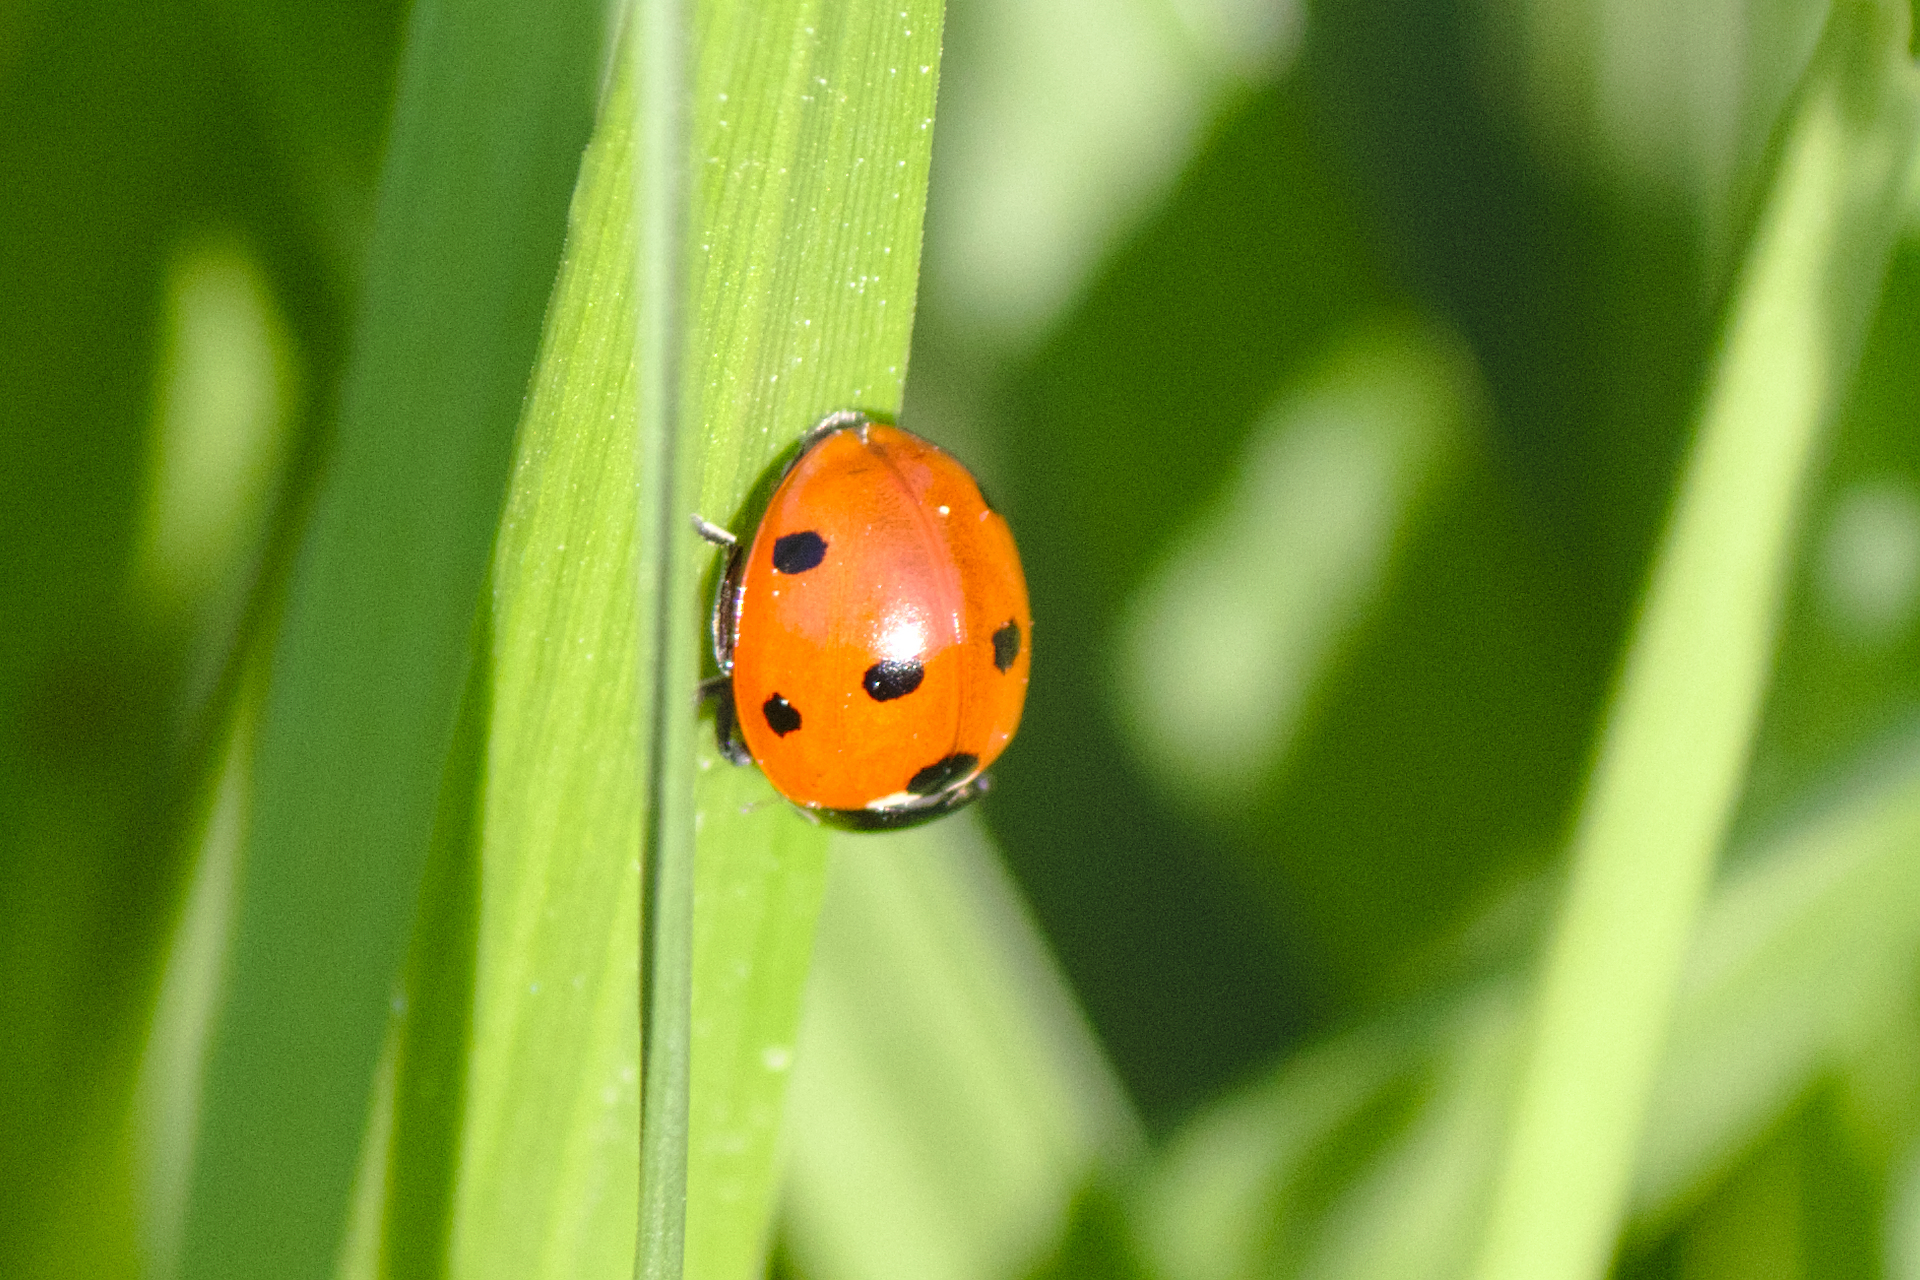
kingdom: Animalia
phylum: Arthropoda
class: Insecta
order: Coleoptera
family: Coccinellidae
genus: Coccinella
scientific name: Coccinella septempunctata
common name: Sevenspotted lady beetle
